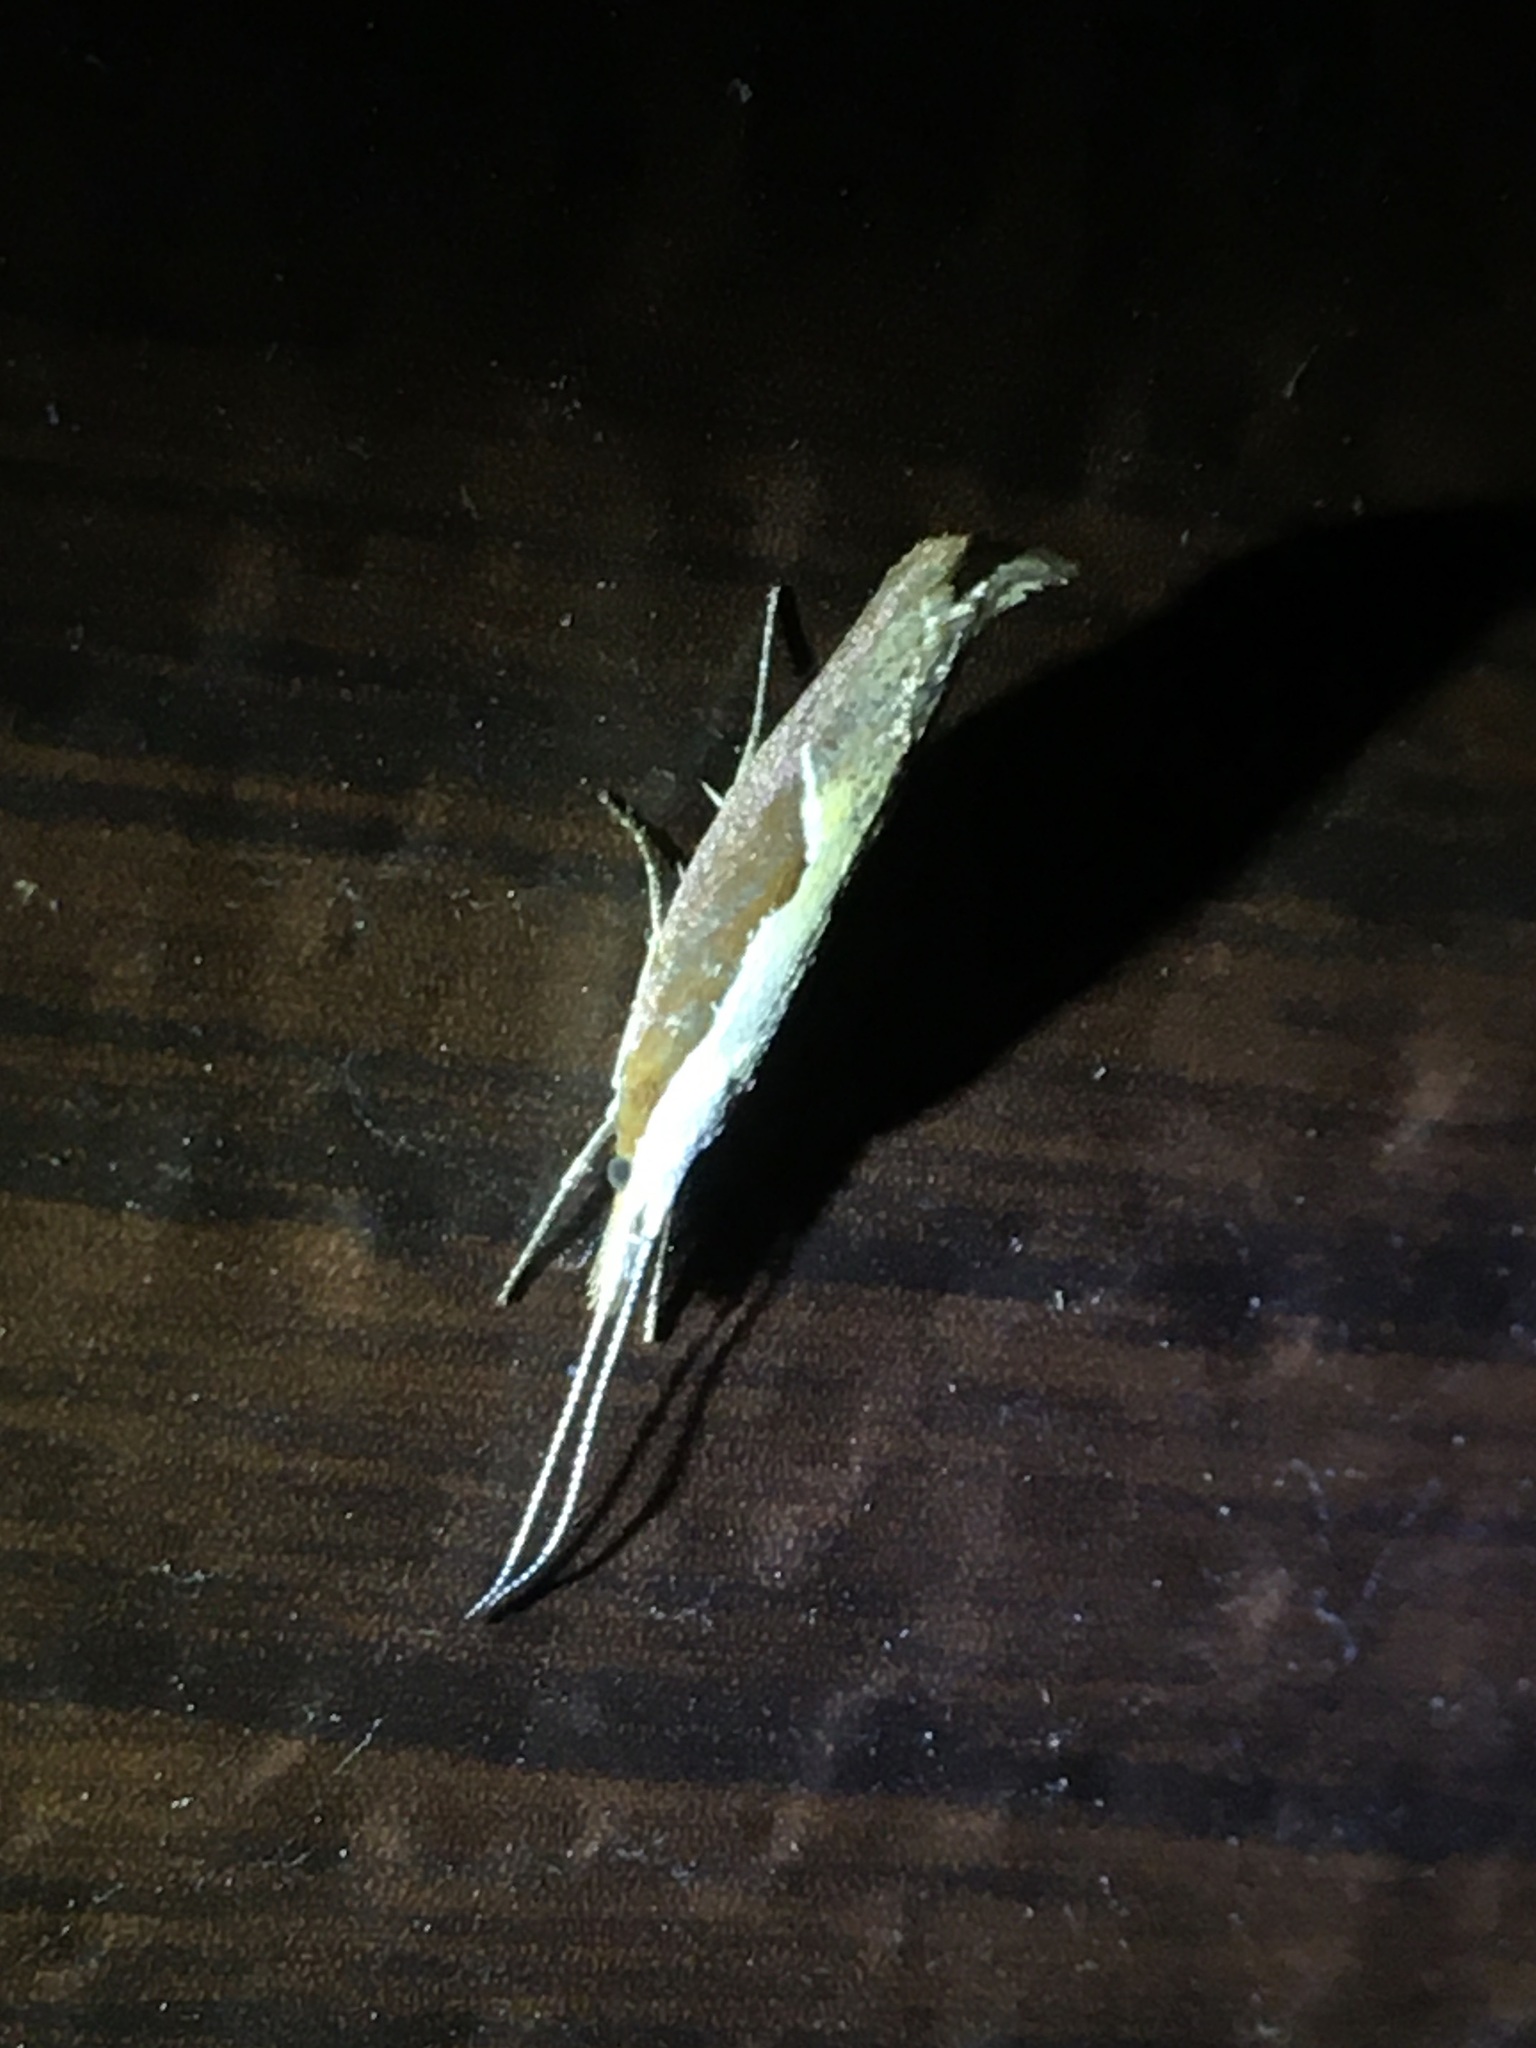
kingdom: Animalia
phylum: Arthropoda
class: Insecta
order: Lepidoptera
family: Ypsolophidae
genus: Ypsolopha
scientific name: Ypsolopha dentella
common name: Honeysuckle moth
